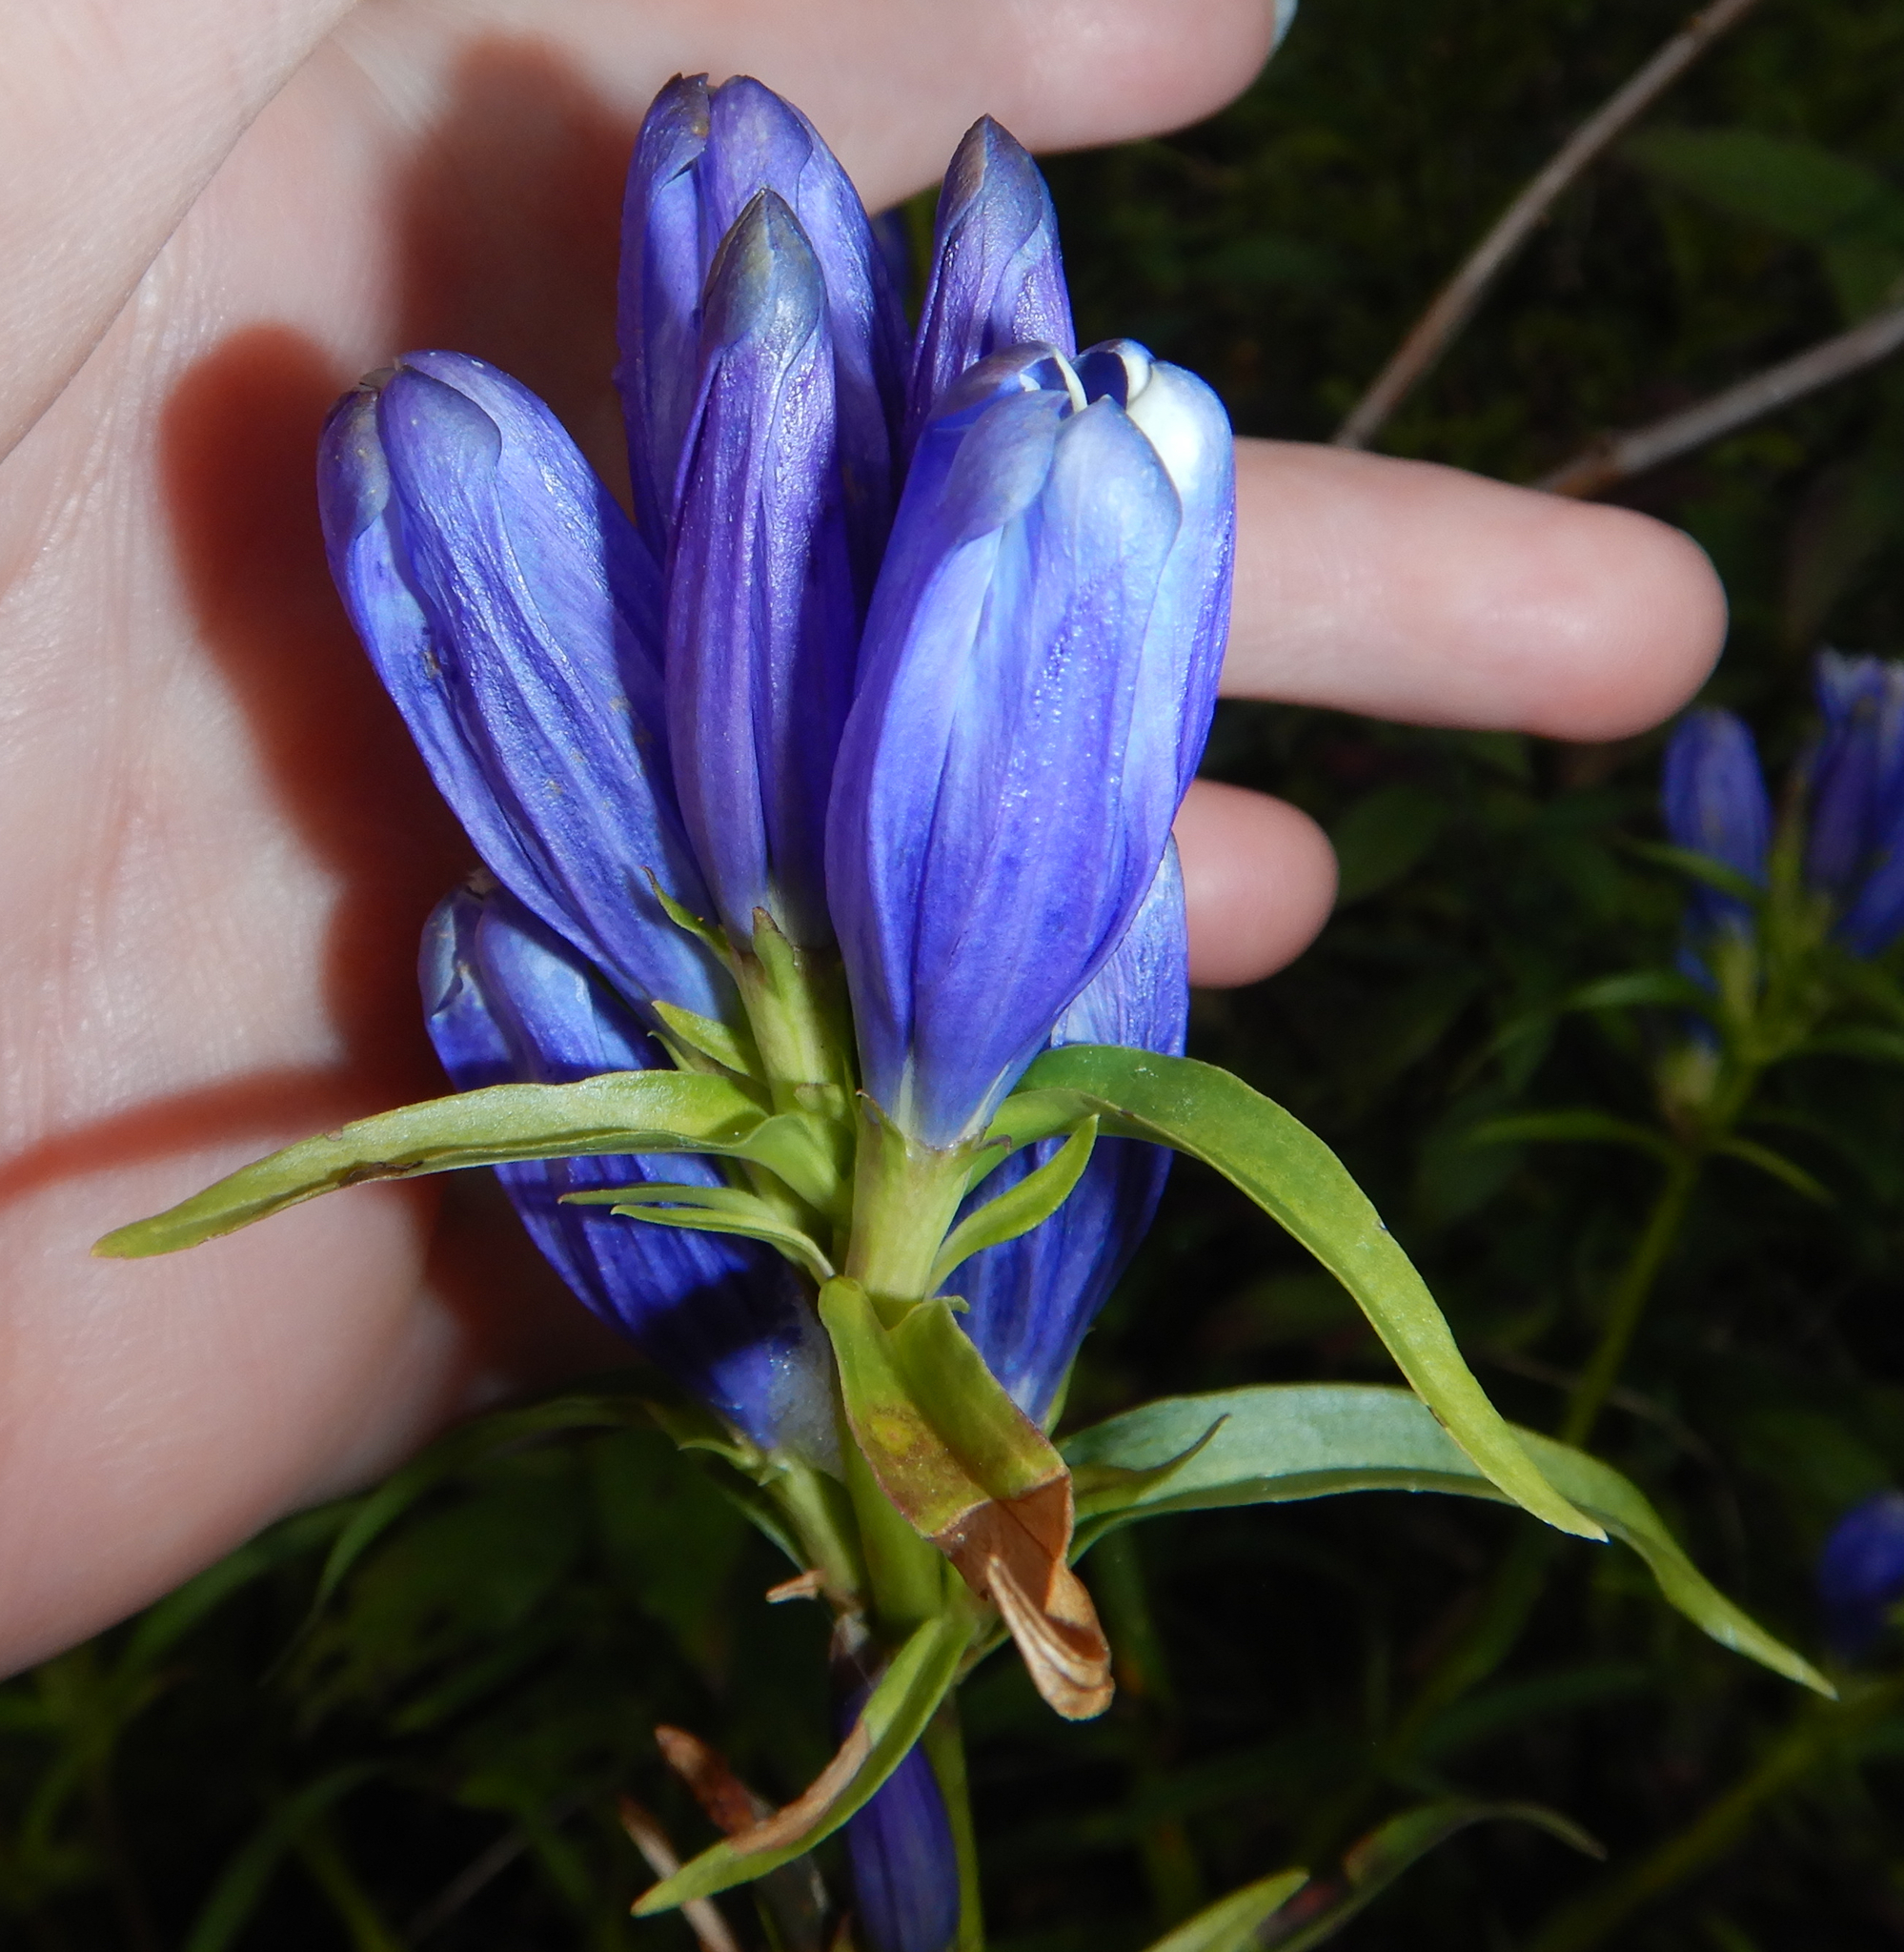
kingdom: Plantae
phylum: Tracheophyta
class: Magnoliopsida
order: Gentianales
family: Gentianaceae
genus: Gentiana
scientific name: Gentiana linearis
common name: Bastard gentian
